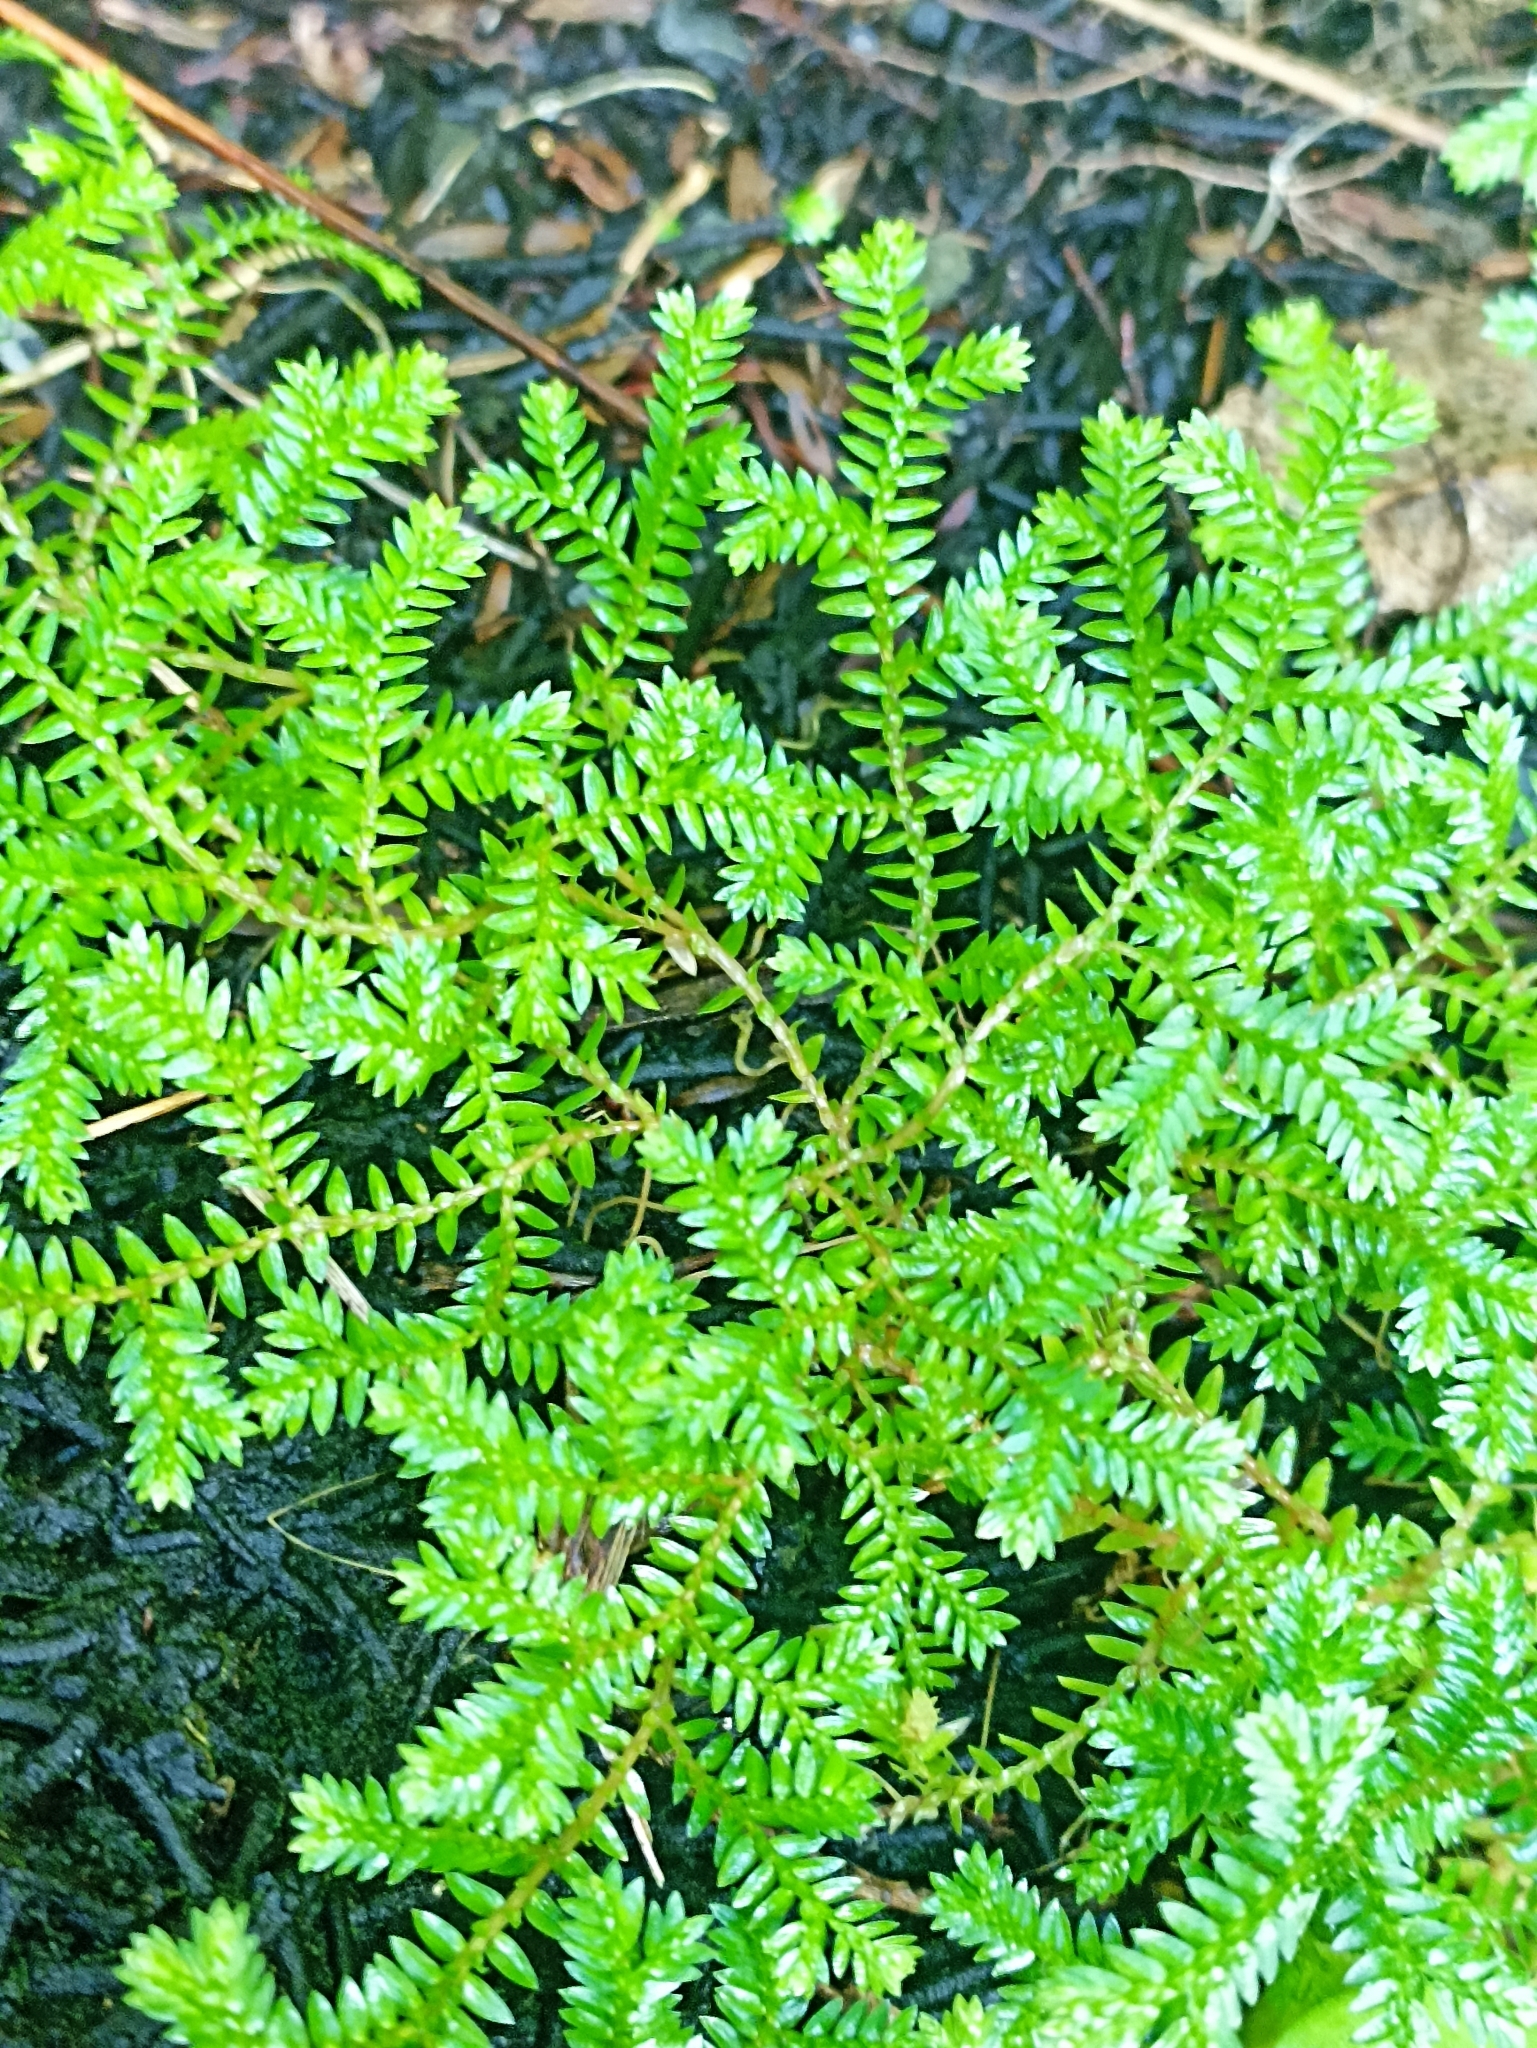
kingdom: Plantae
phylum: Tracheophyta
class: Lycopodiopsida
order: Selaginellales
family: Selaginellaceae
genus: Selaginella
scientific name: Selaginella kraussiana
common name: Krauss' spikemoss
